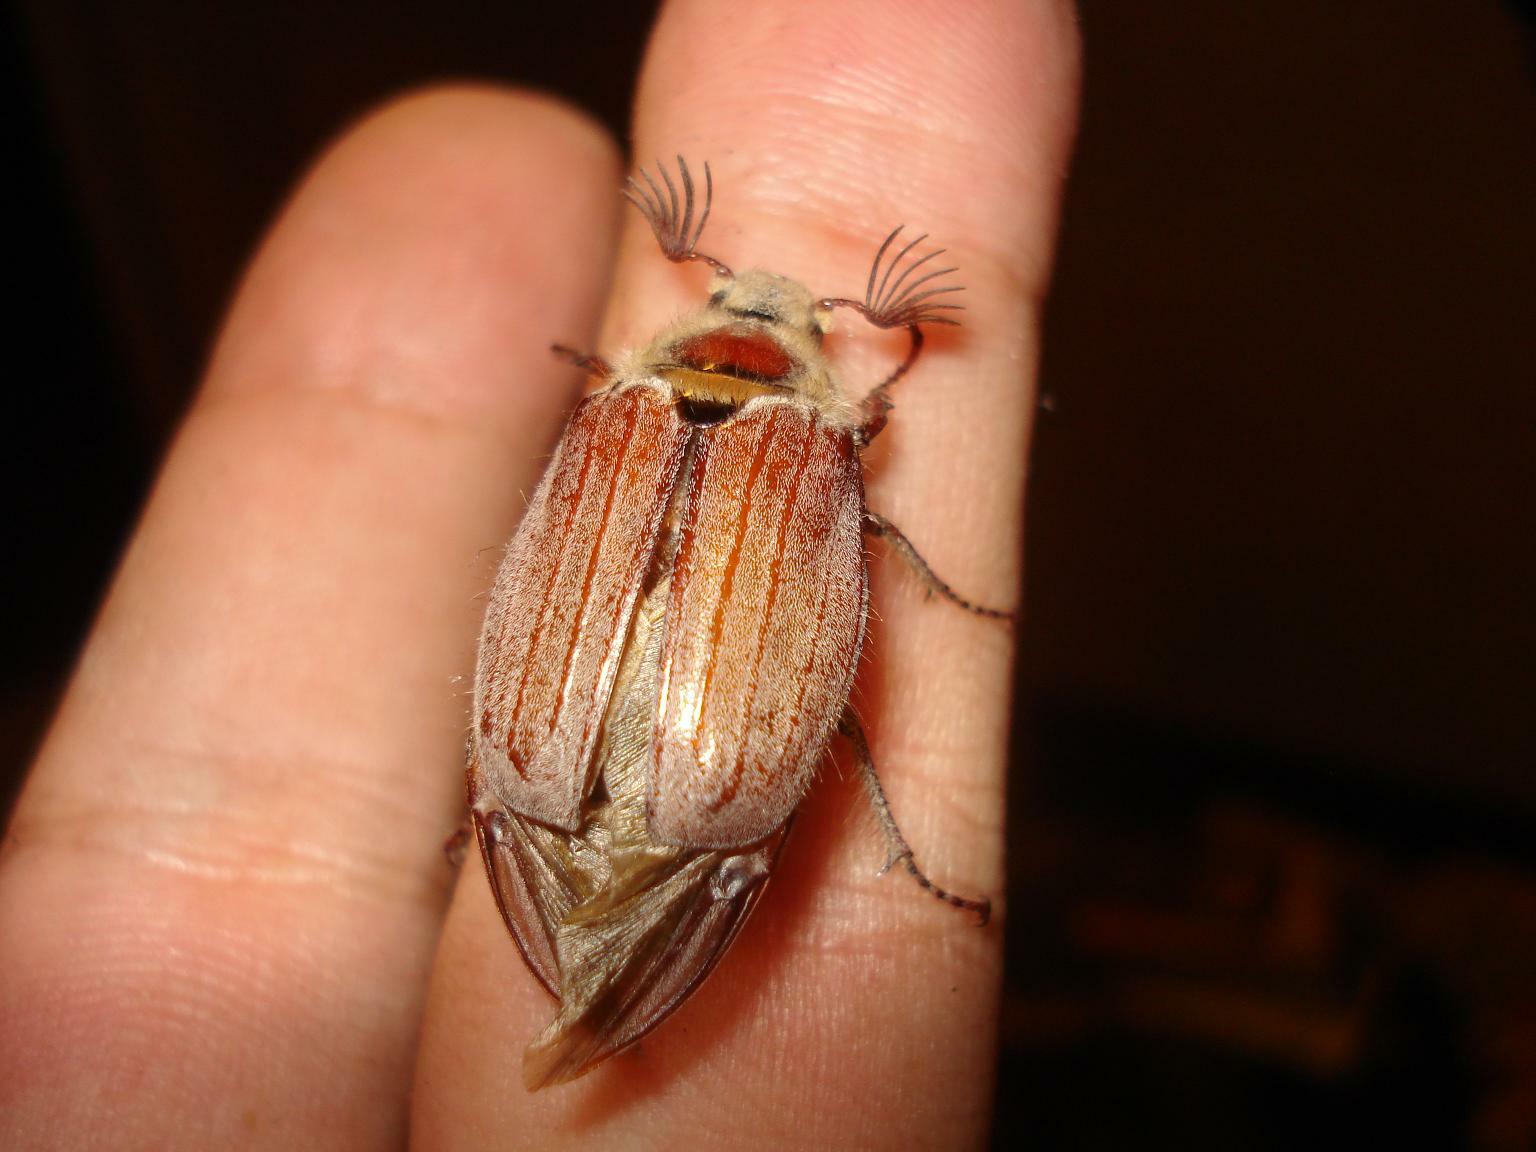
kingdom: Animalia
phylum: Arthropoda
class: Insecta
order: Coleoptera
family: Scarabaeidae
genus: Melolontha
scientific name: Melolontha hippocastani
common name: Chestnut cockchafer
